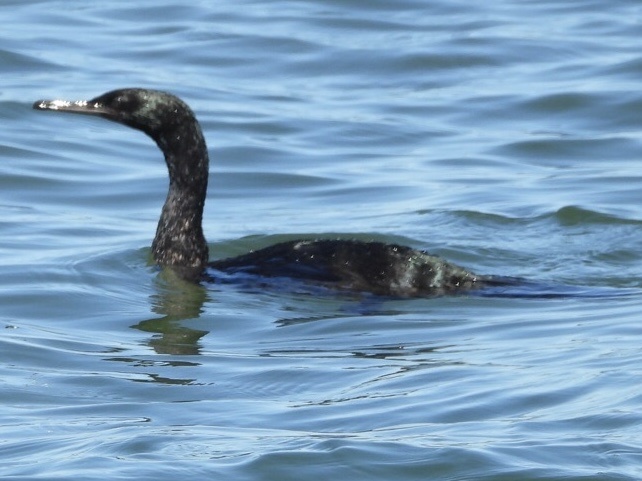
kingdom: Animalia
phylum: Chordata
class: Aves
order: Suliformes
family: Phalacrocoracidae
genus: Phalacrocorax
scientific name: Phalacrocorax pelagicus
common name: Pelagic cormorant
